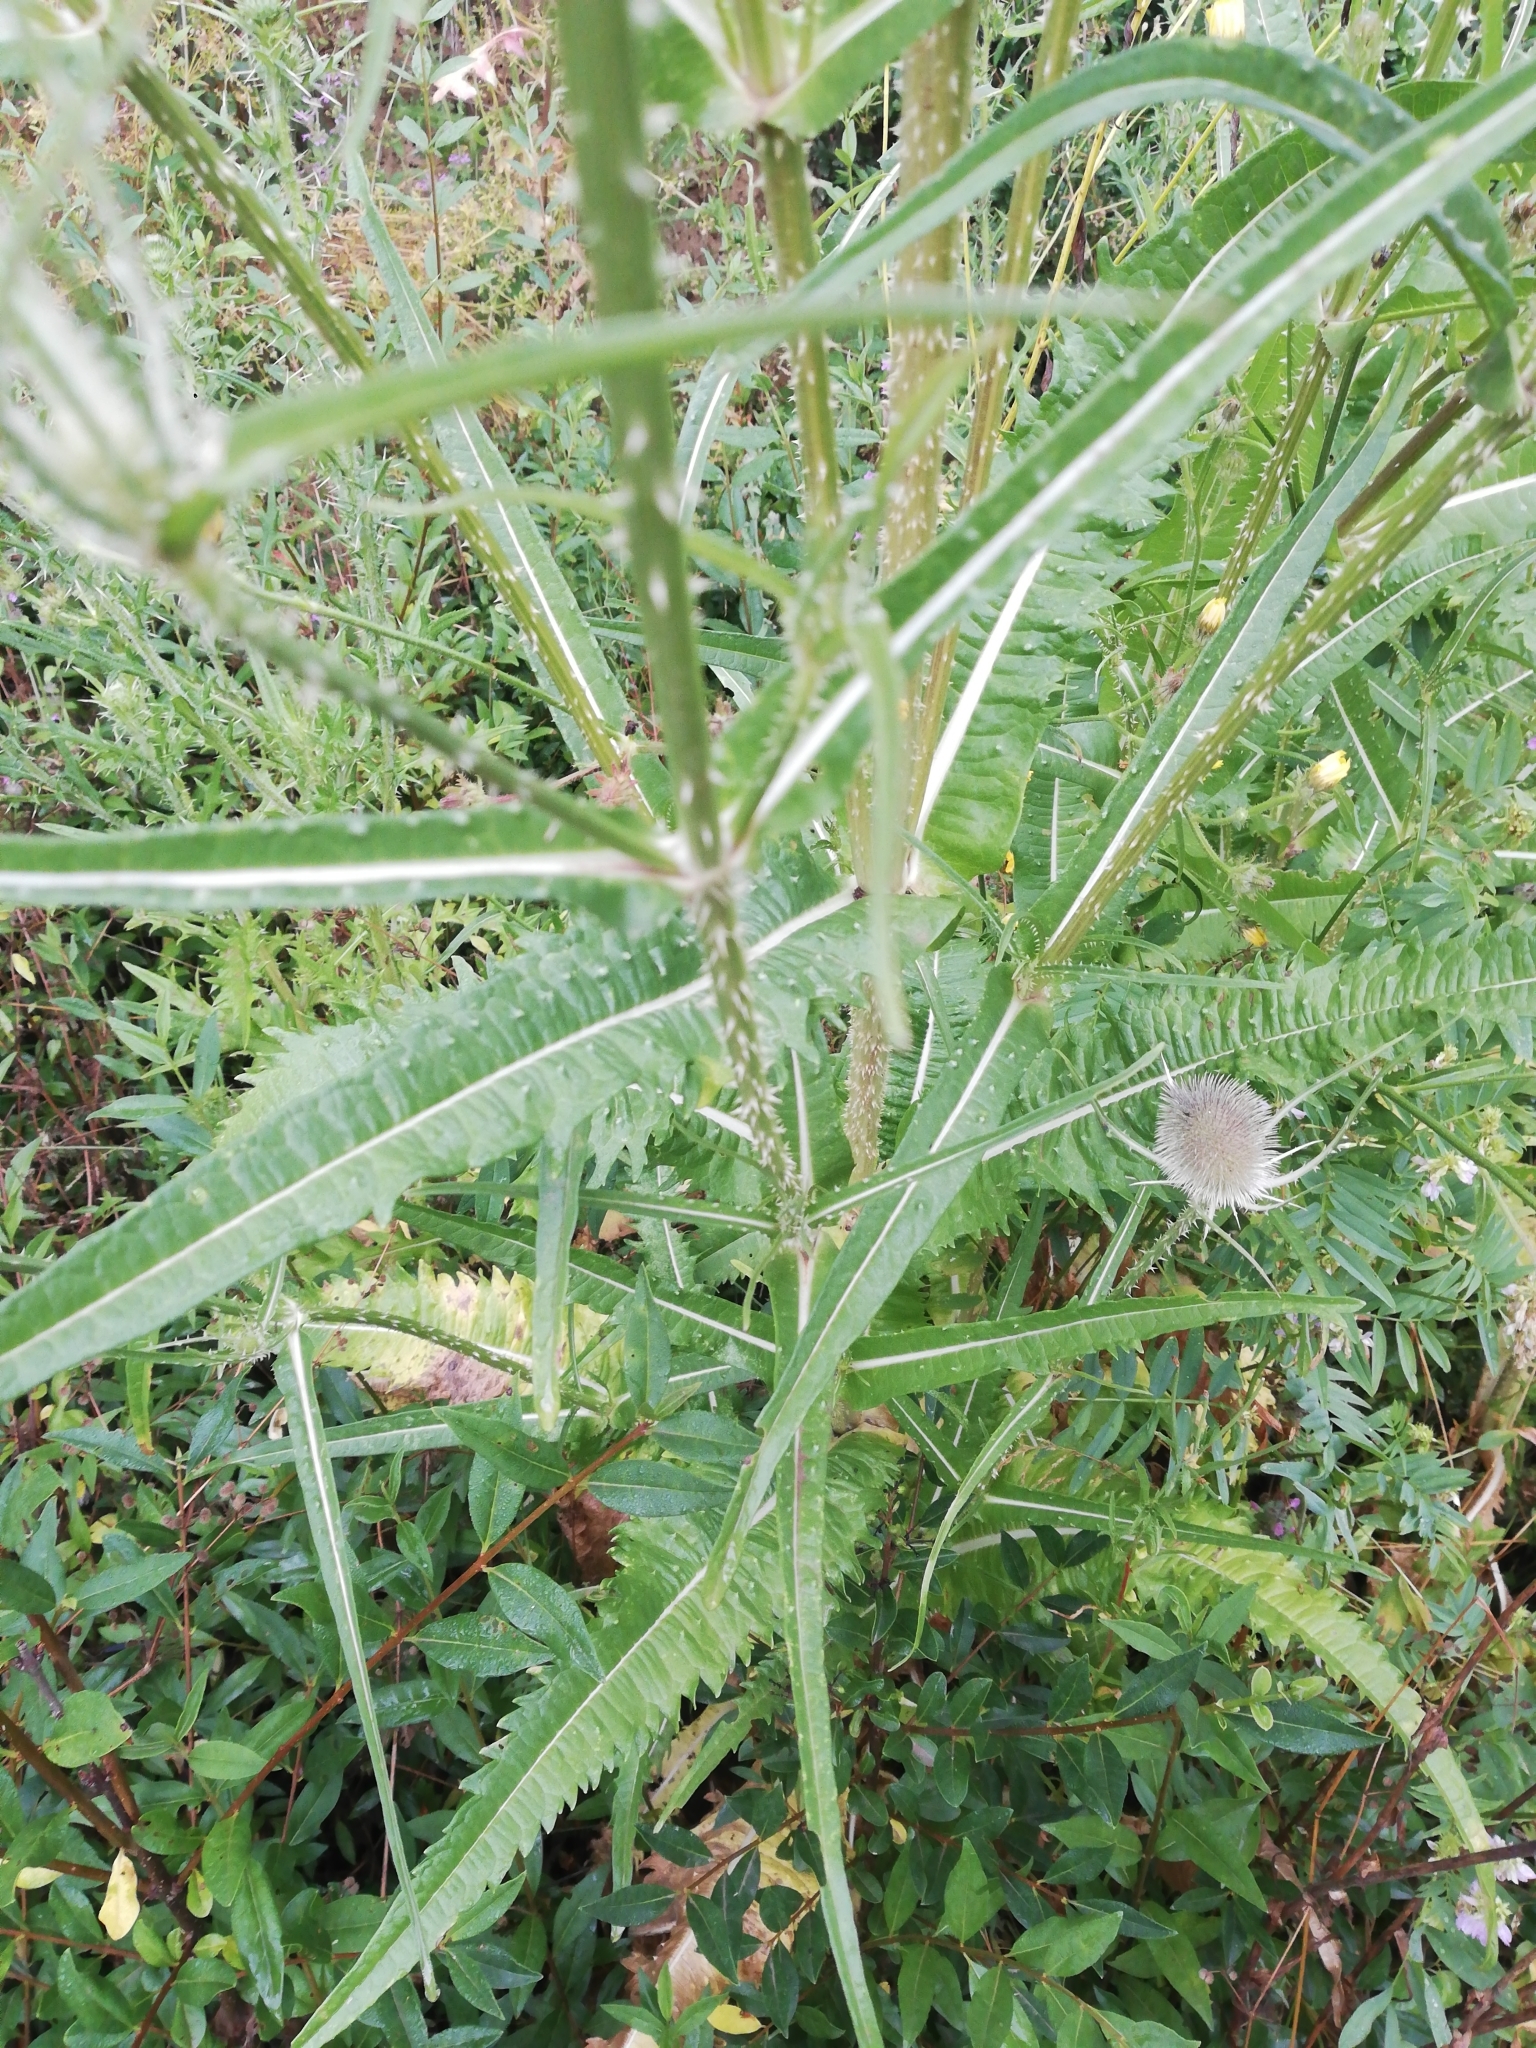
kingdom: Plantae
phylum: Tracheophyta
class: Magnoliopsida
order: Dipsacales
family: Caprifoliaceae
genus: Dipsacus
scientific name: Dipsacus fullonum
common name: Teasel
